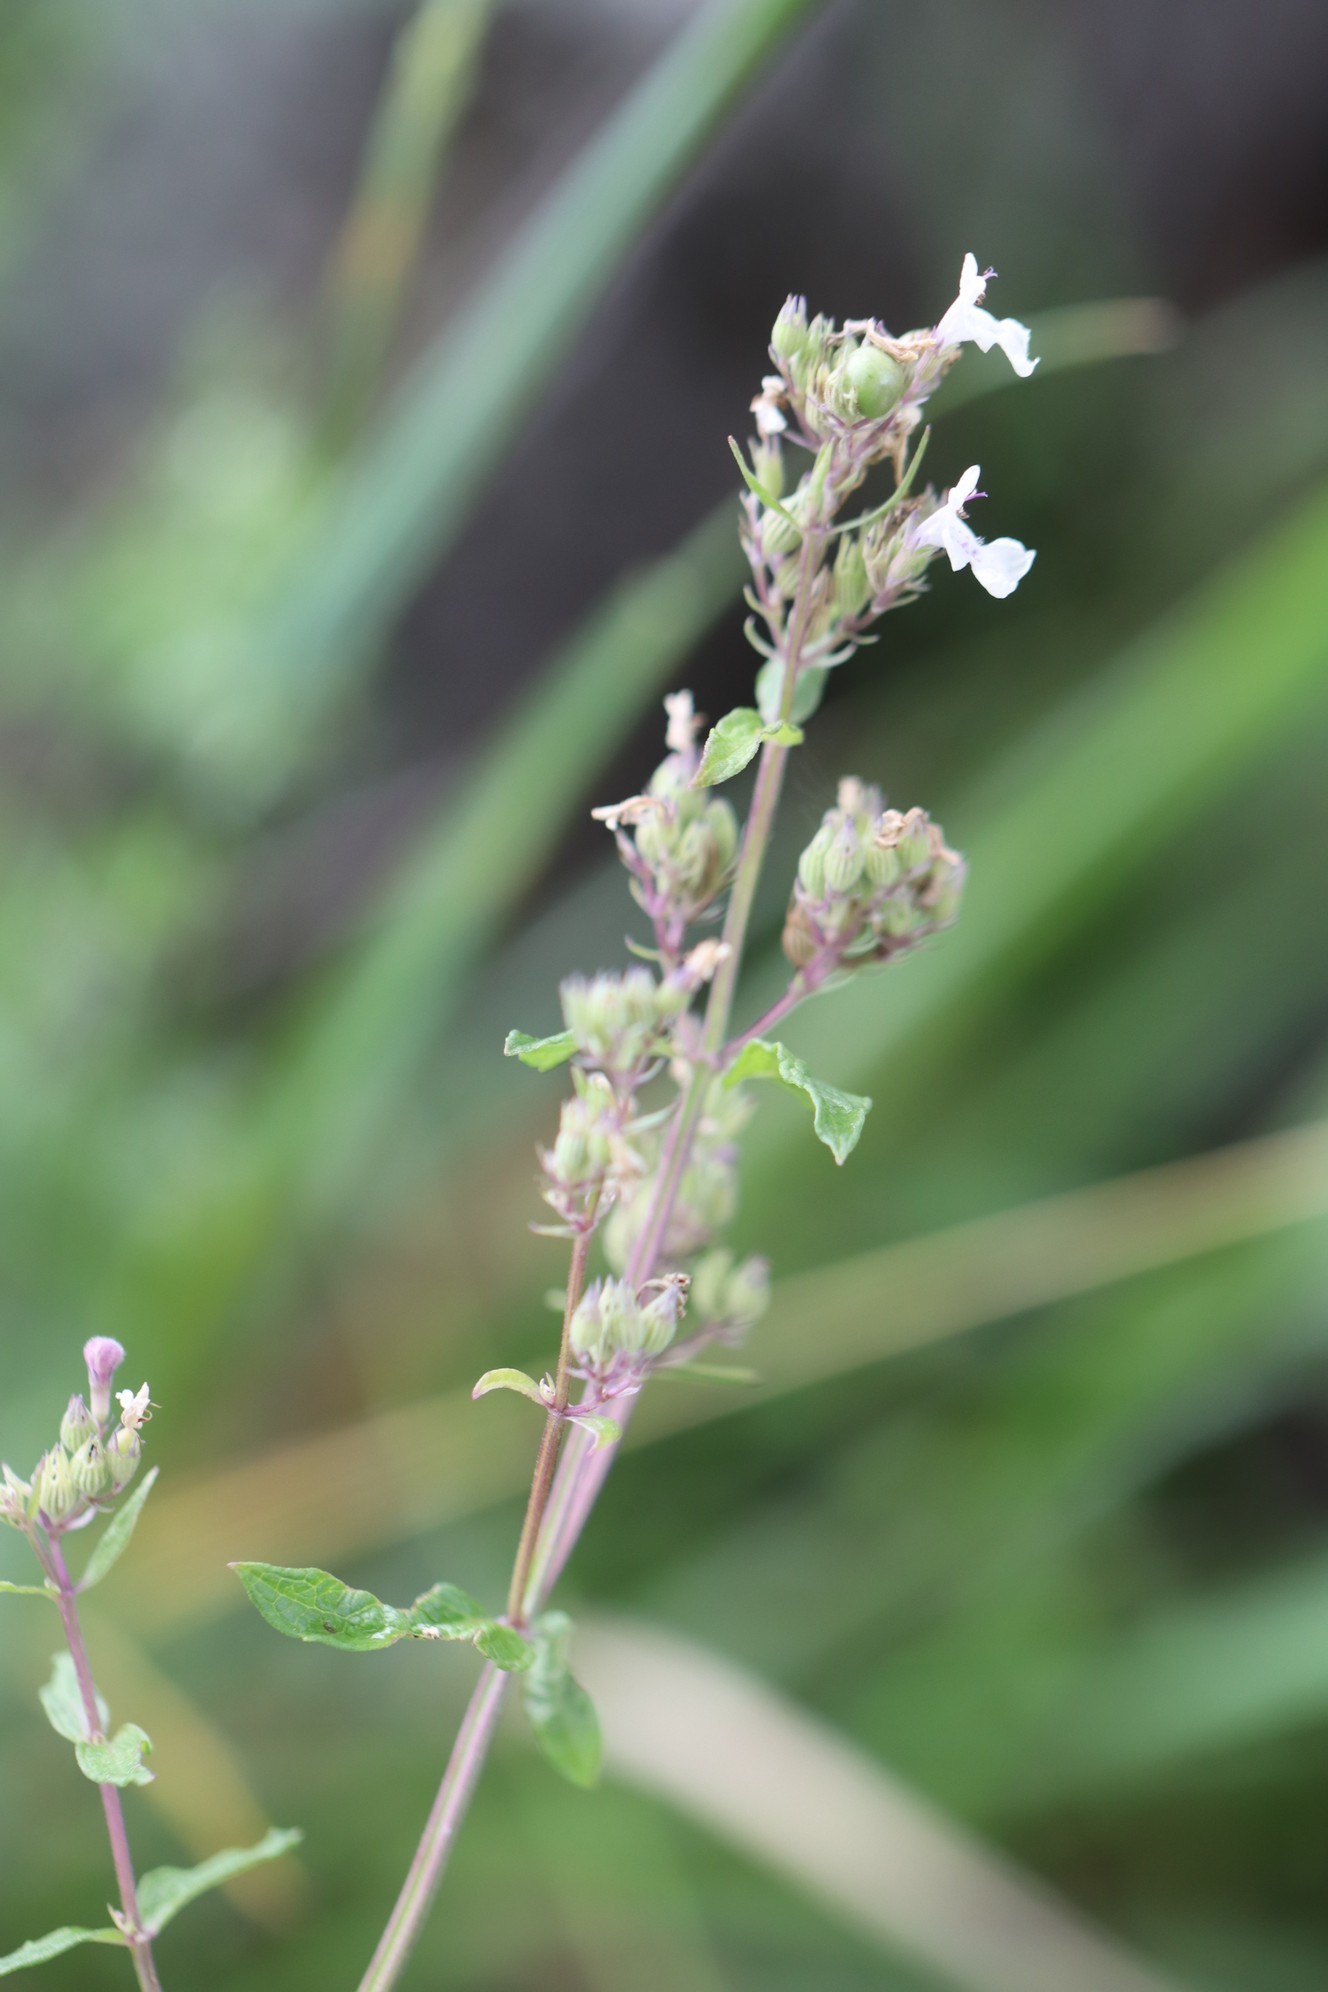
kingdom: Plantae
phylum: Tracheophyta
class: Magnoliopsida
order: Lamiales
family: Lamiaceae
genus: Nepeta
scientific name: Nepeta nuda
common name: Hairless catmint
